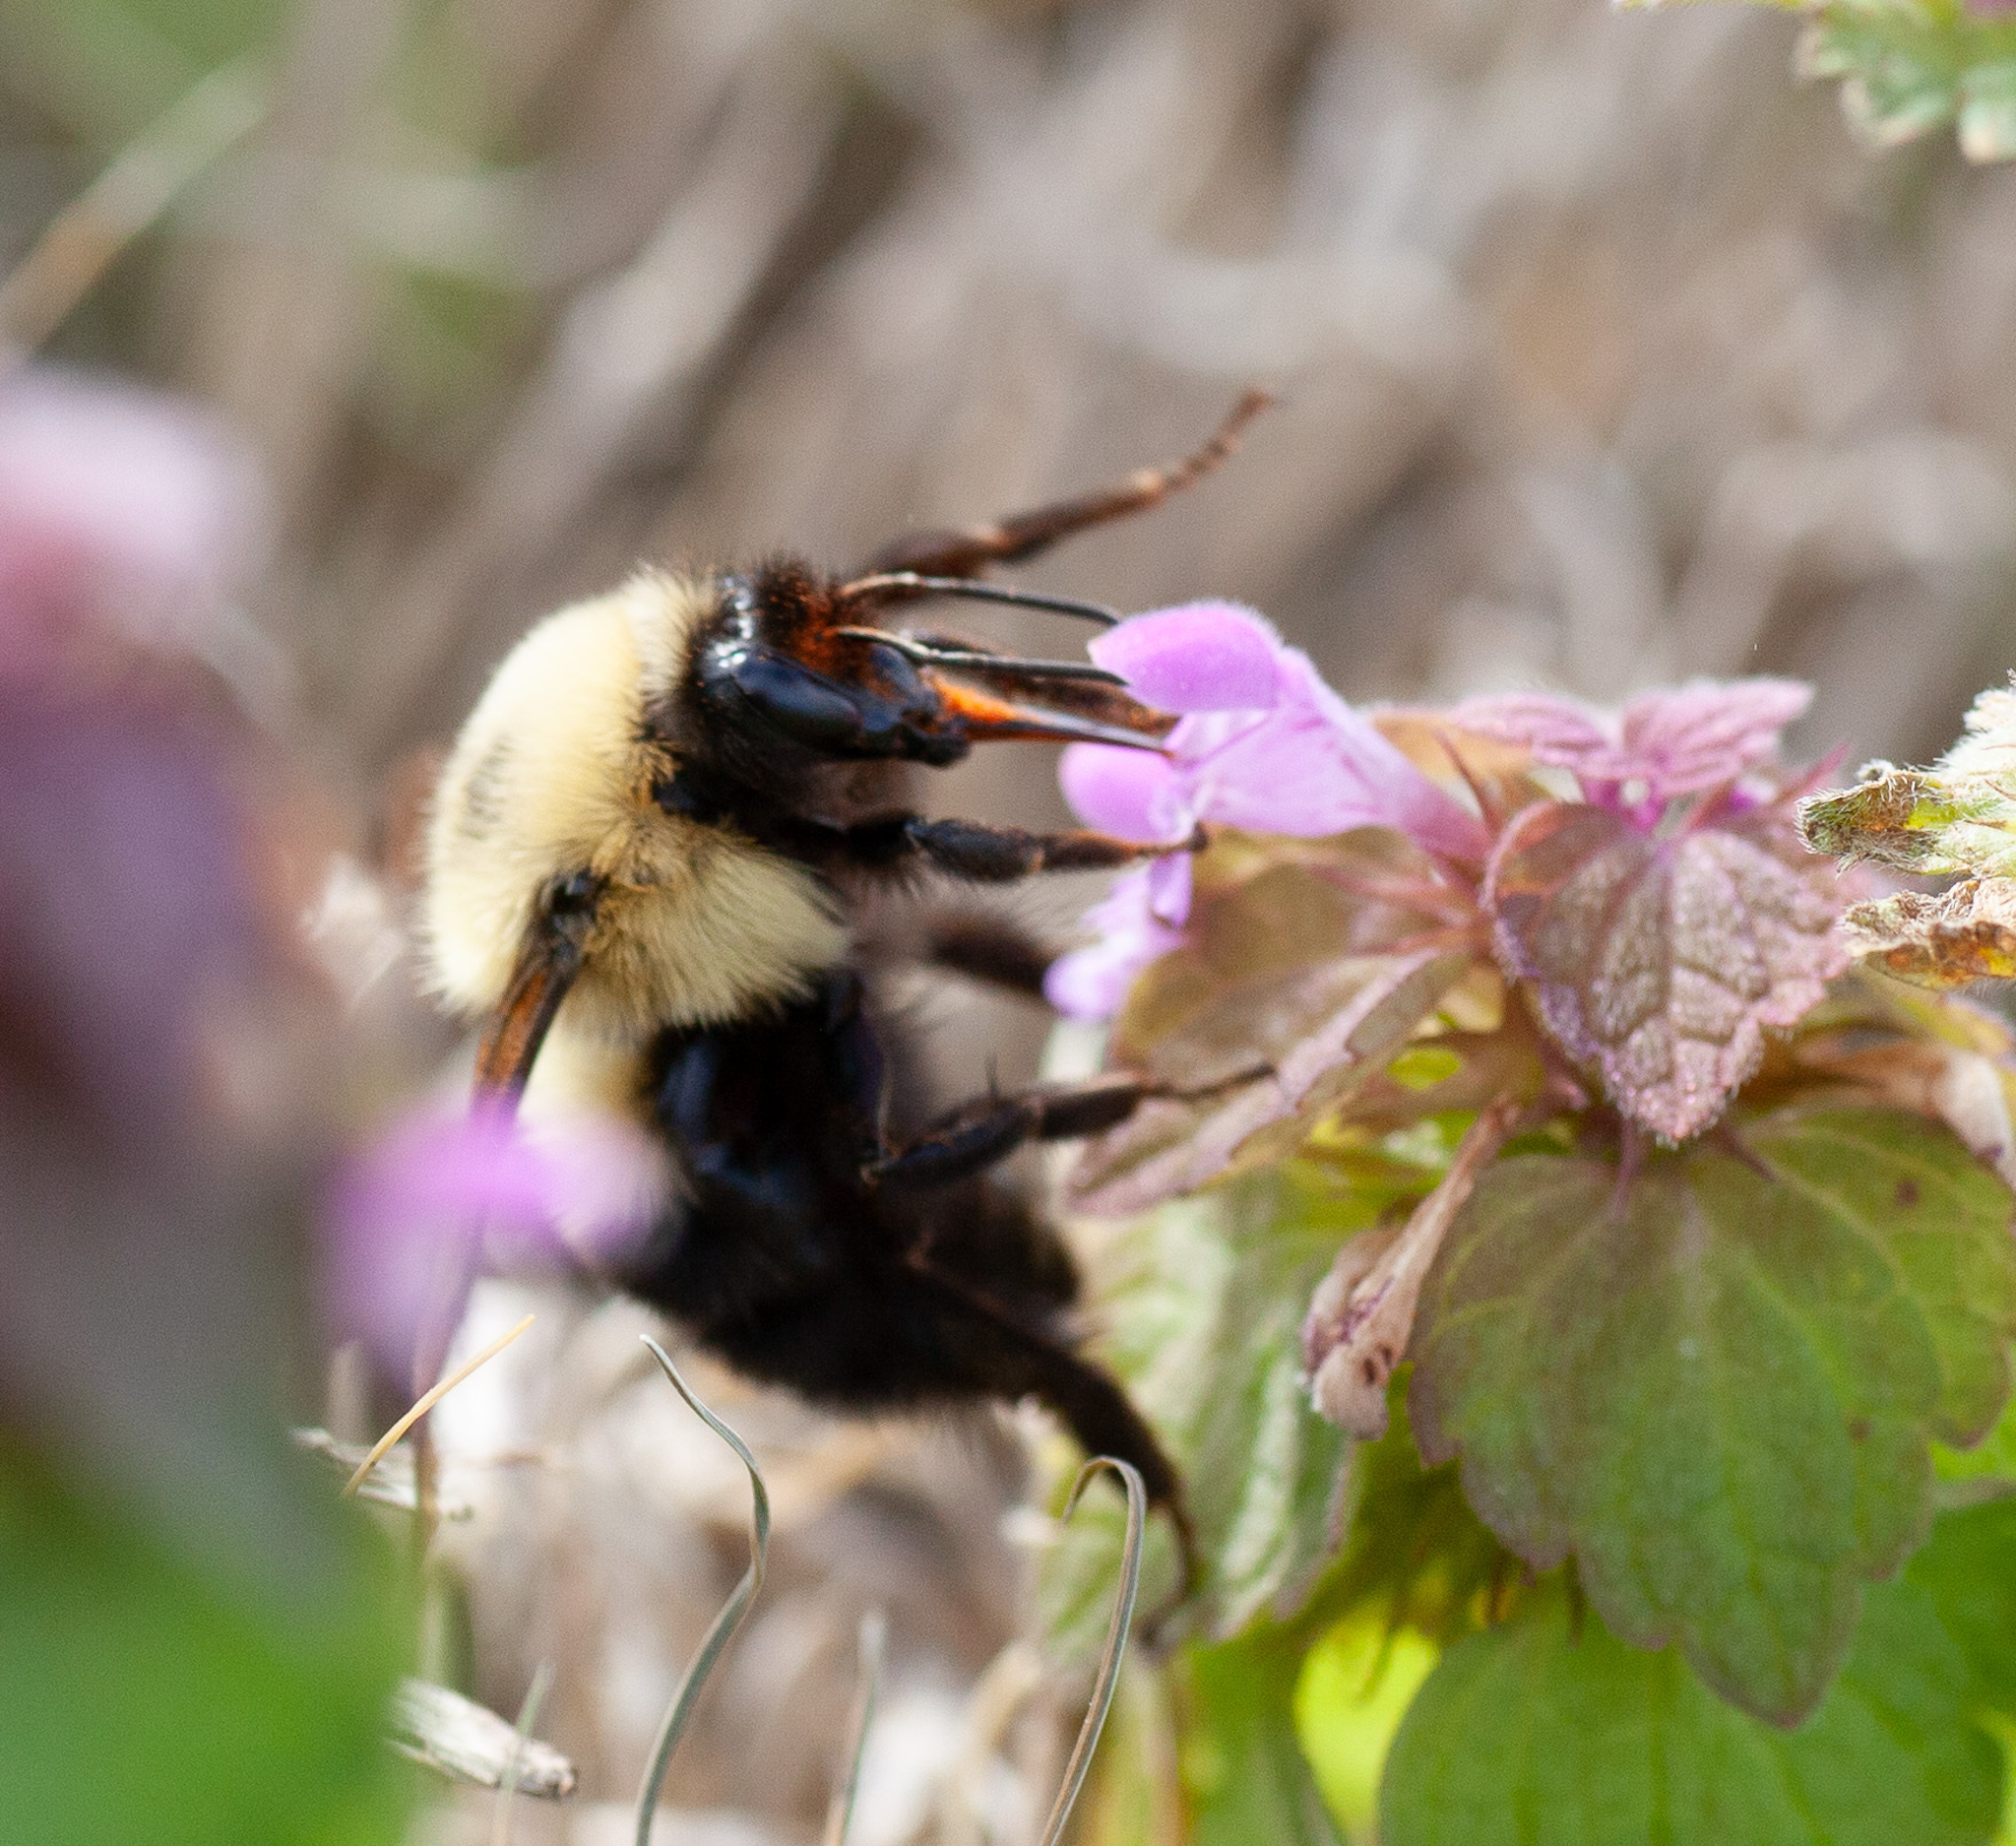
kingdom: Animalia
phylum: Arthropoda
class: Insecta
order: Hymenoptera
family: Apidae
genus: Bombus
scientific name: Bombus bimaculatus
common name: Two-spotted bumble bee
